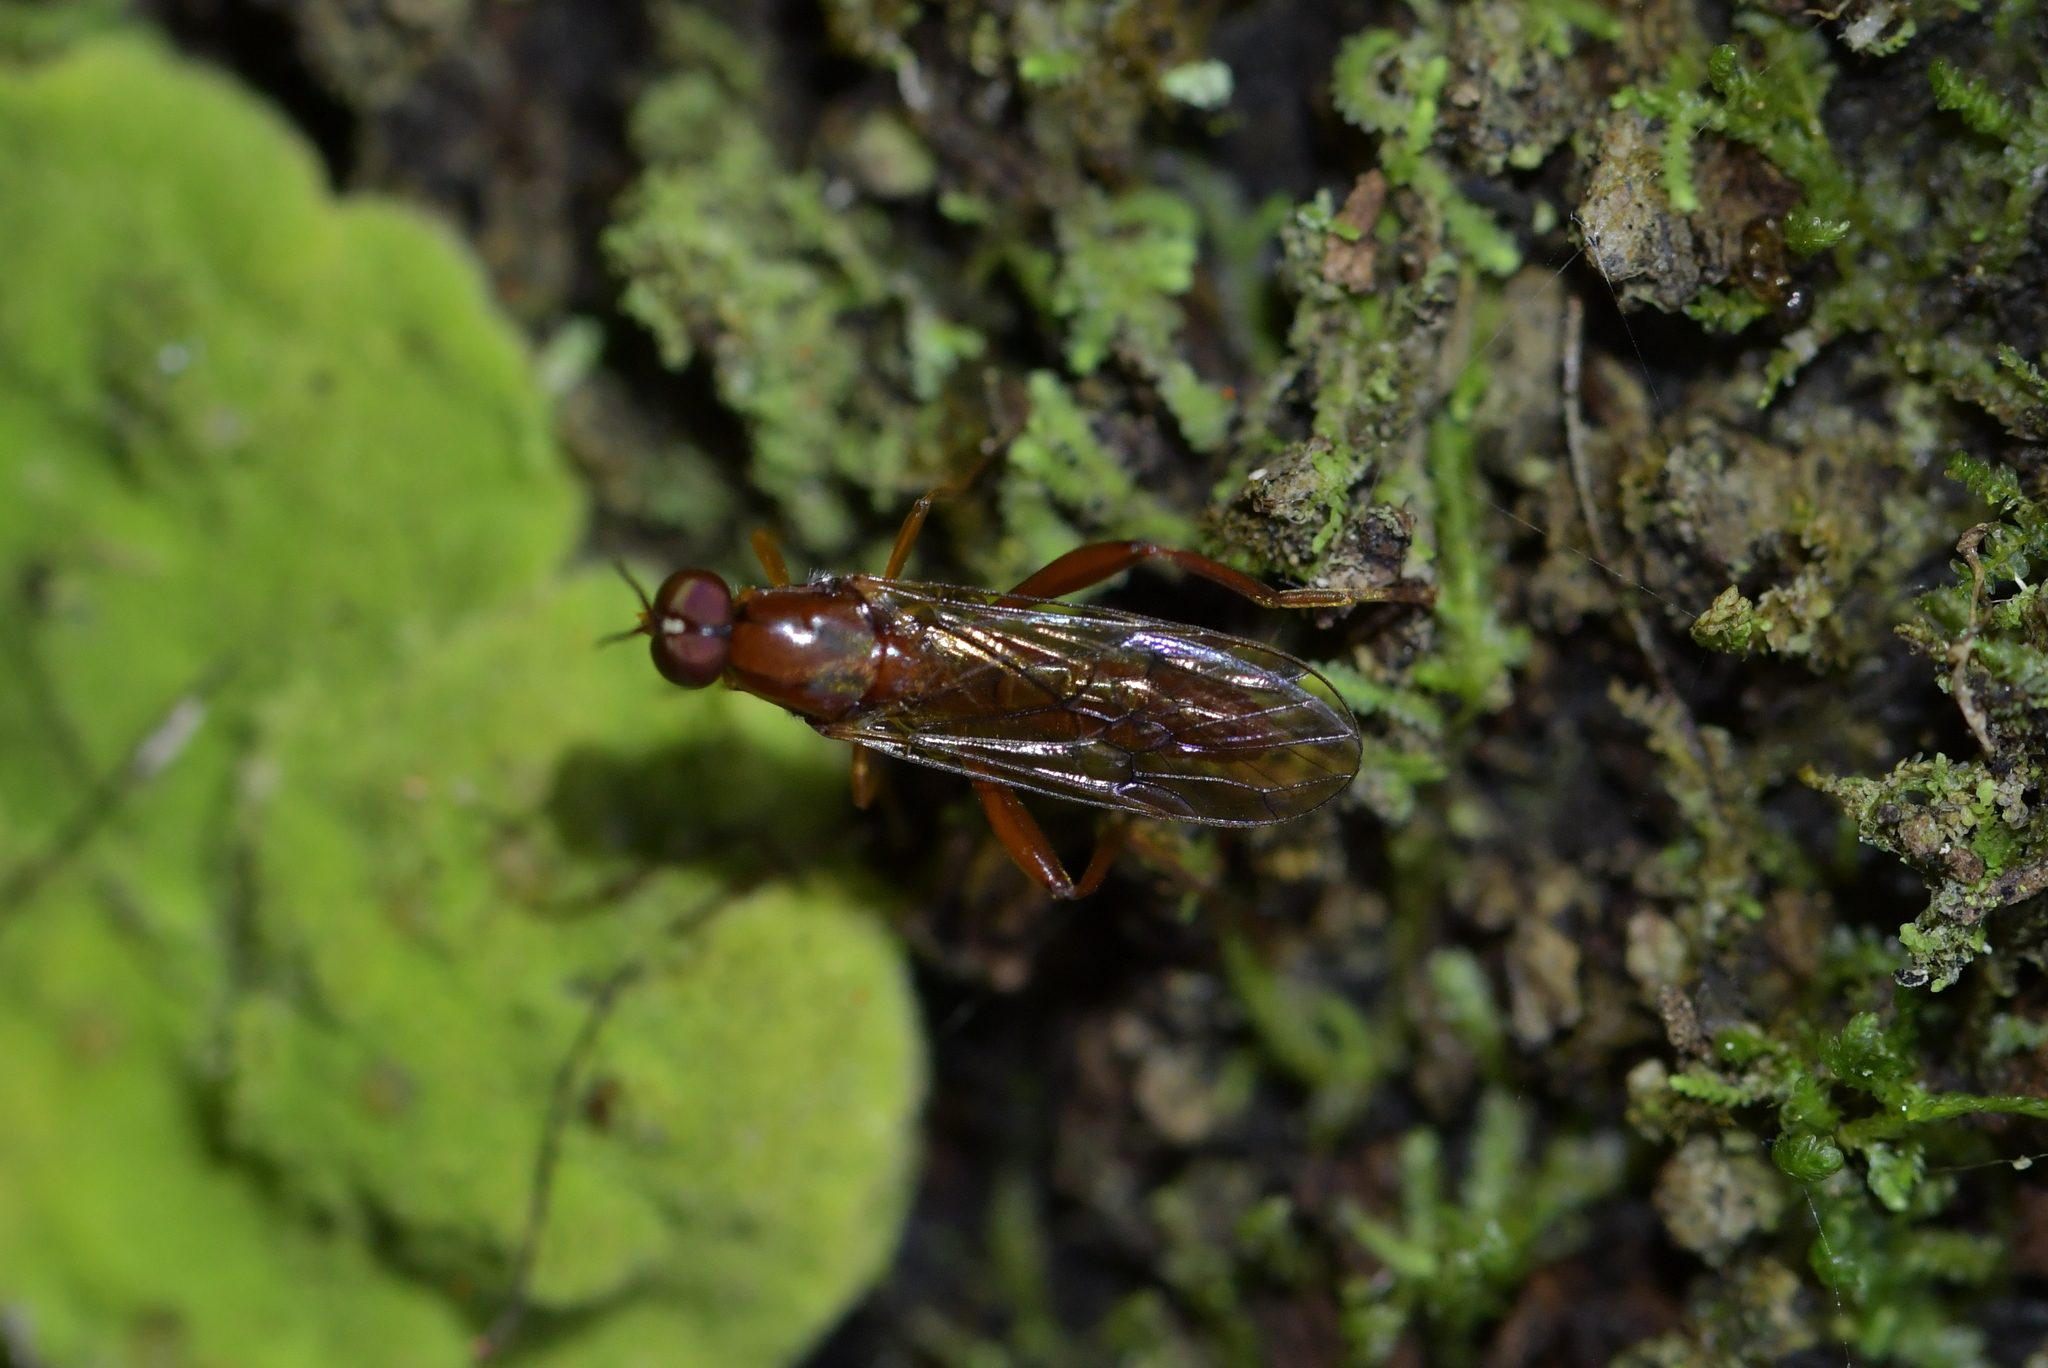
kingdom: Animalia
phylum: Arthropoda
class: Insecta
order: Diptera
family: Stratiomyidae
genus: Benhamyia
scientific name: Benhamyia straznitzkii
